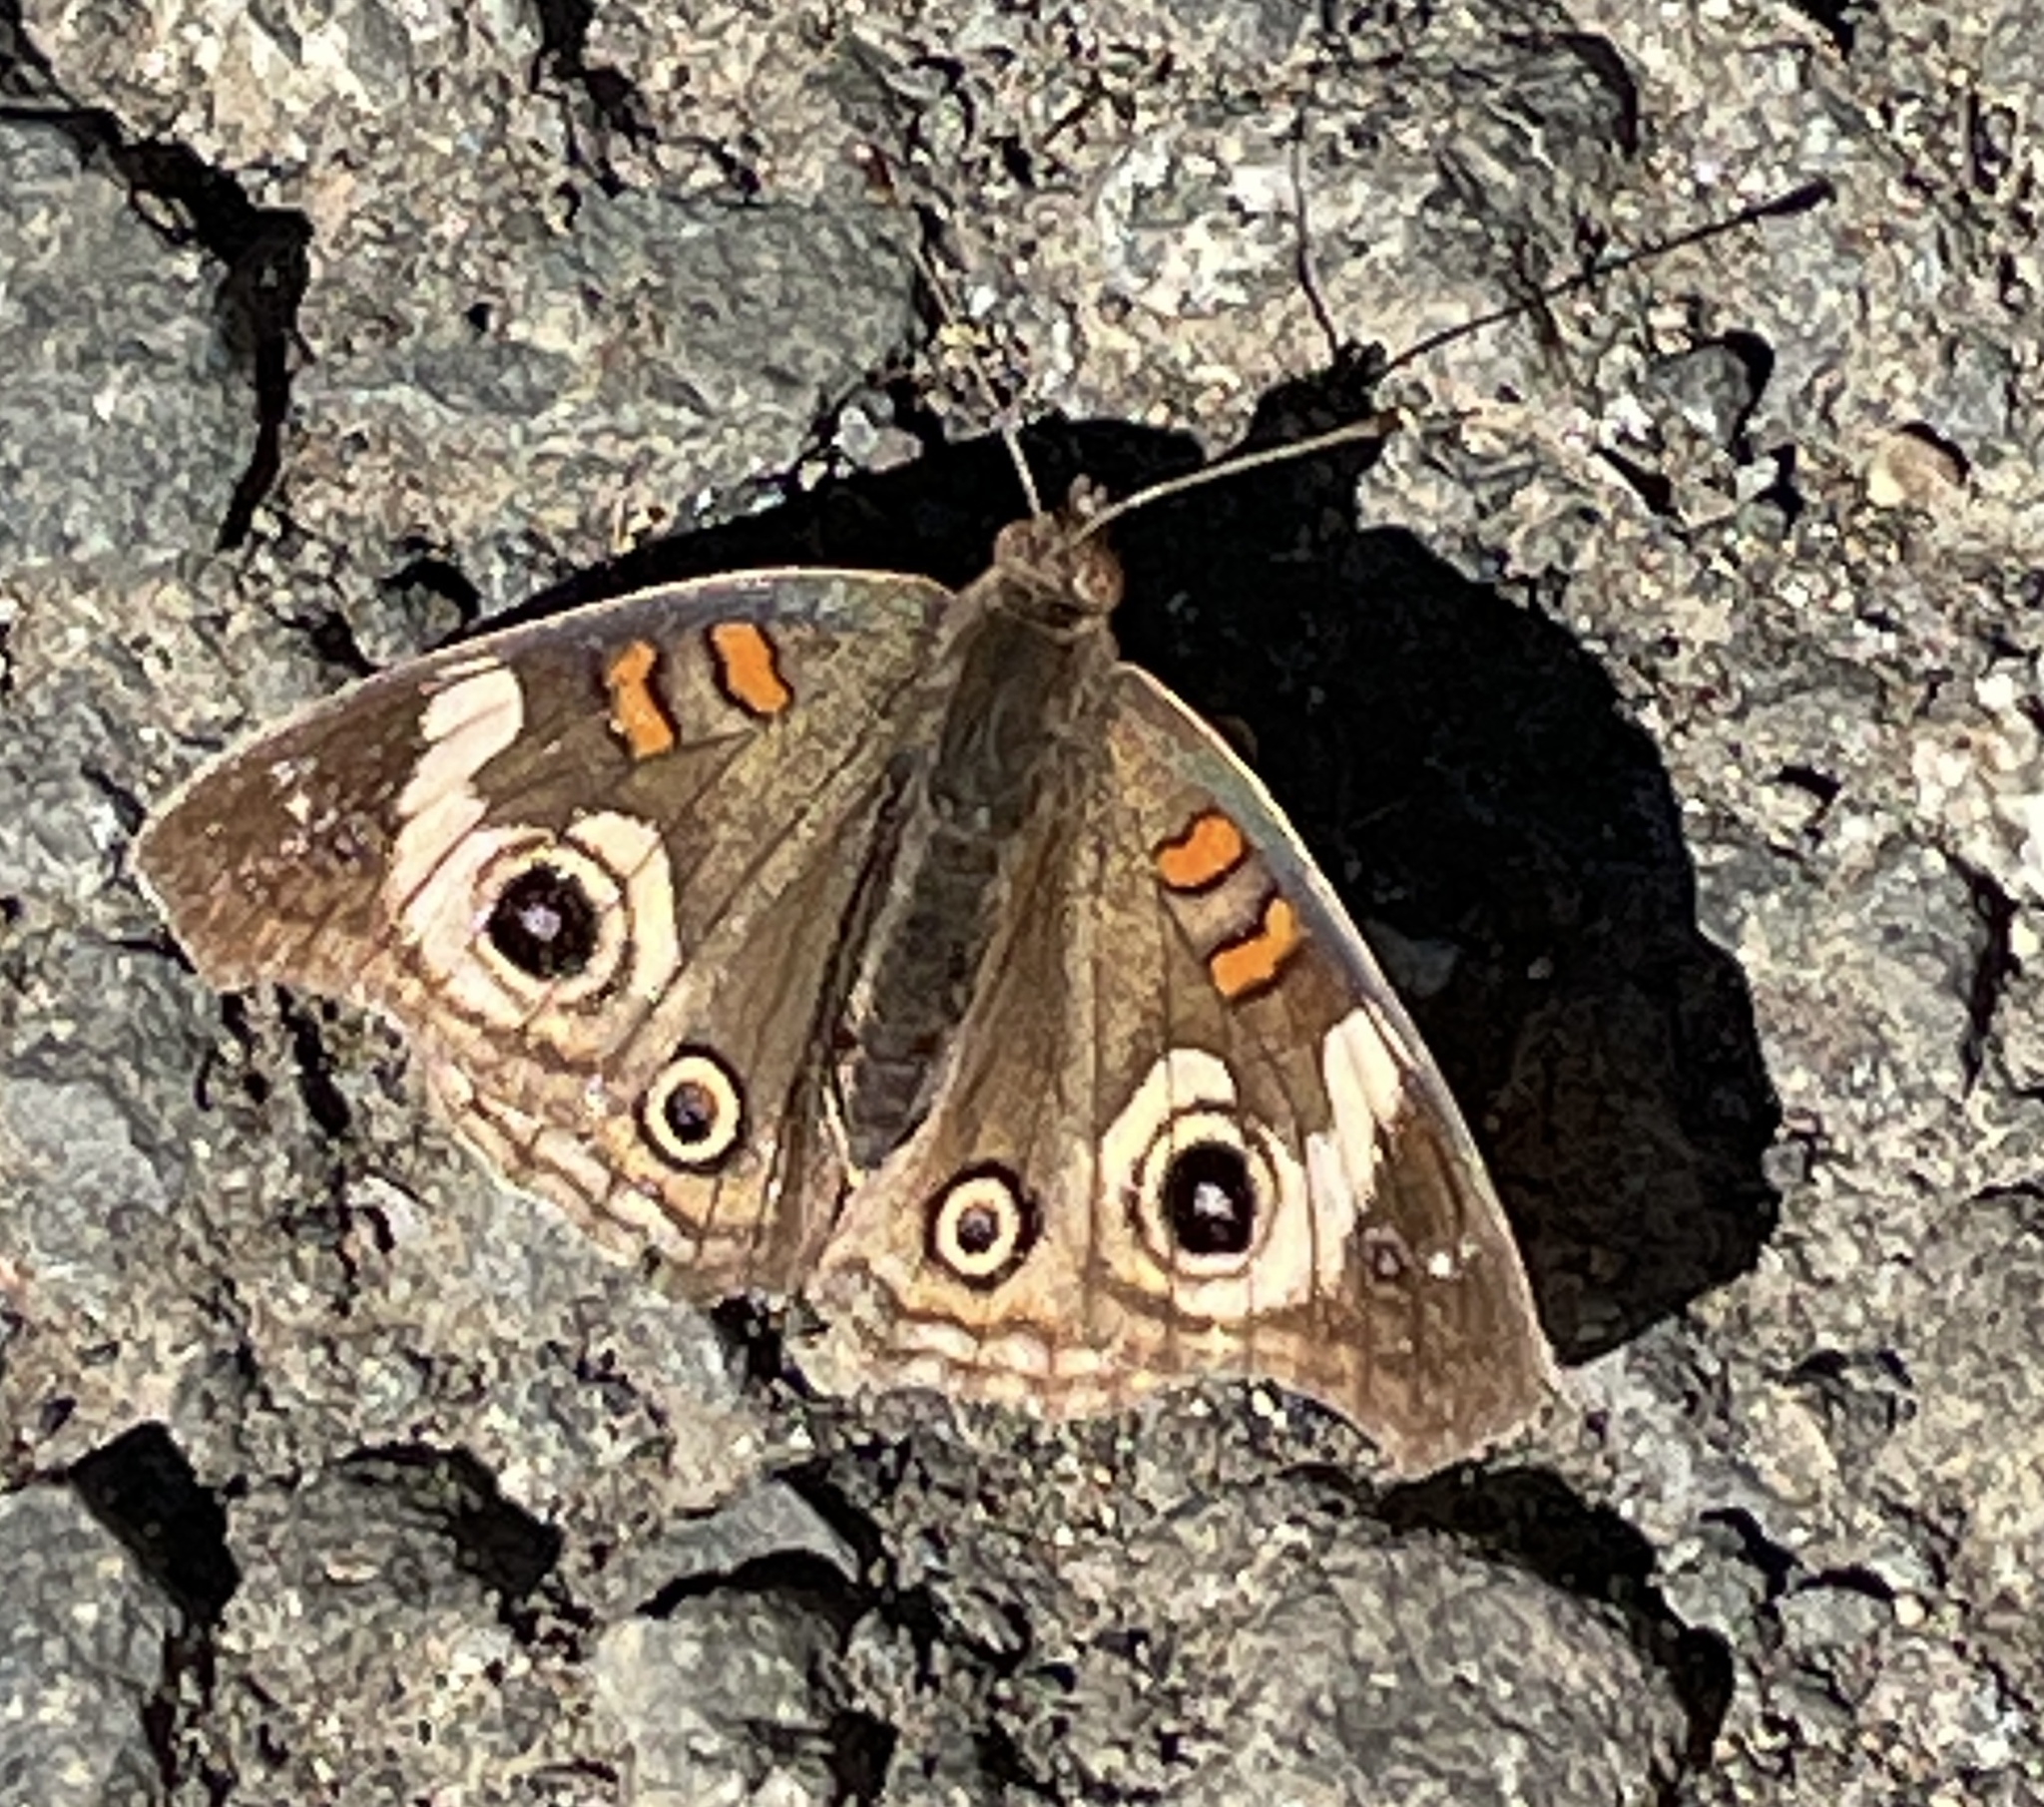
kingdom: Animalia
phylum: Arthropoda
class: Insecta
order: Lepidoptera
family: Nymphalidae
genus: Junonia
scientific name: Junonia grisea
